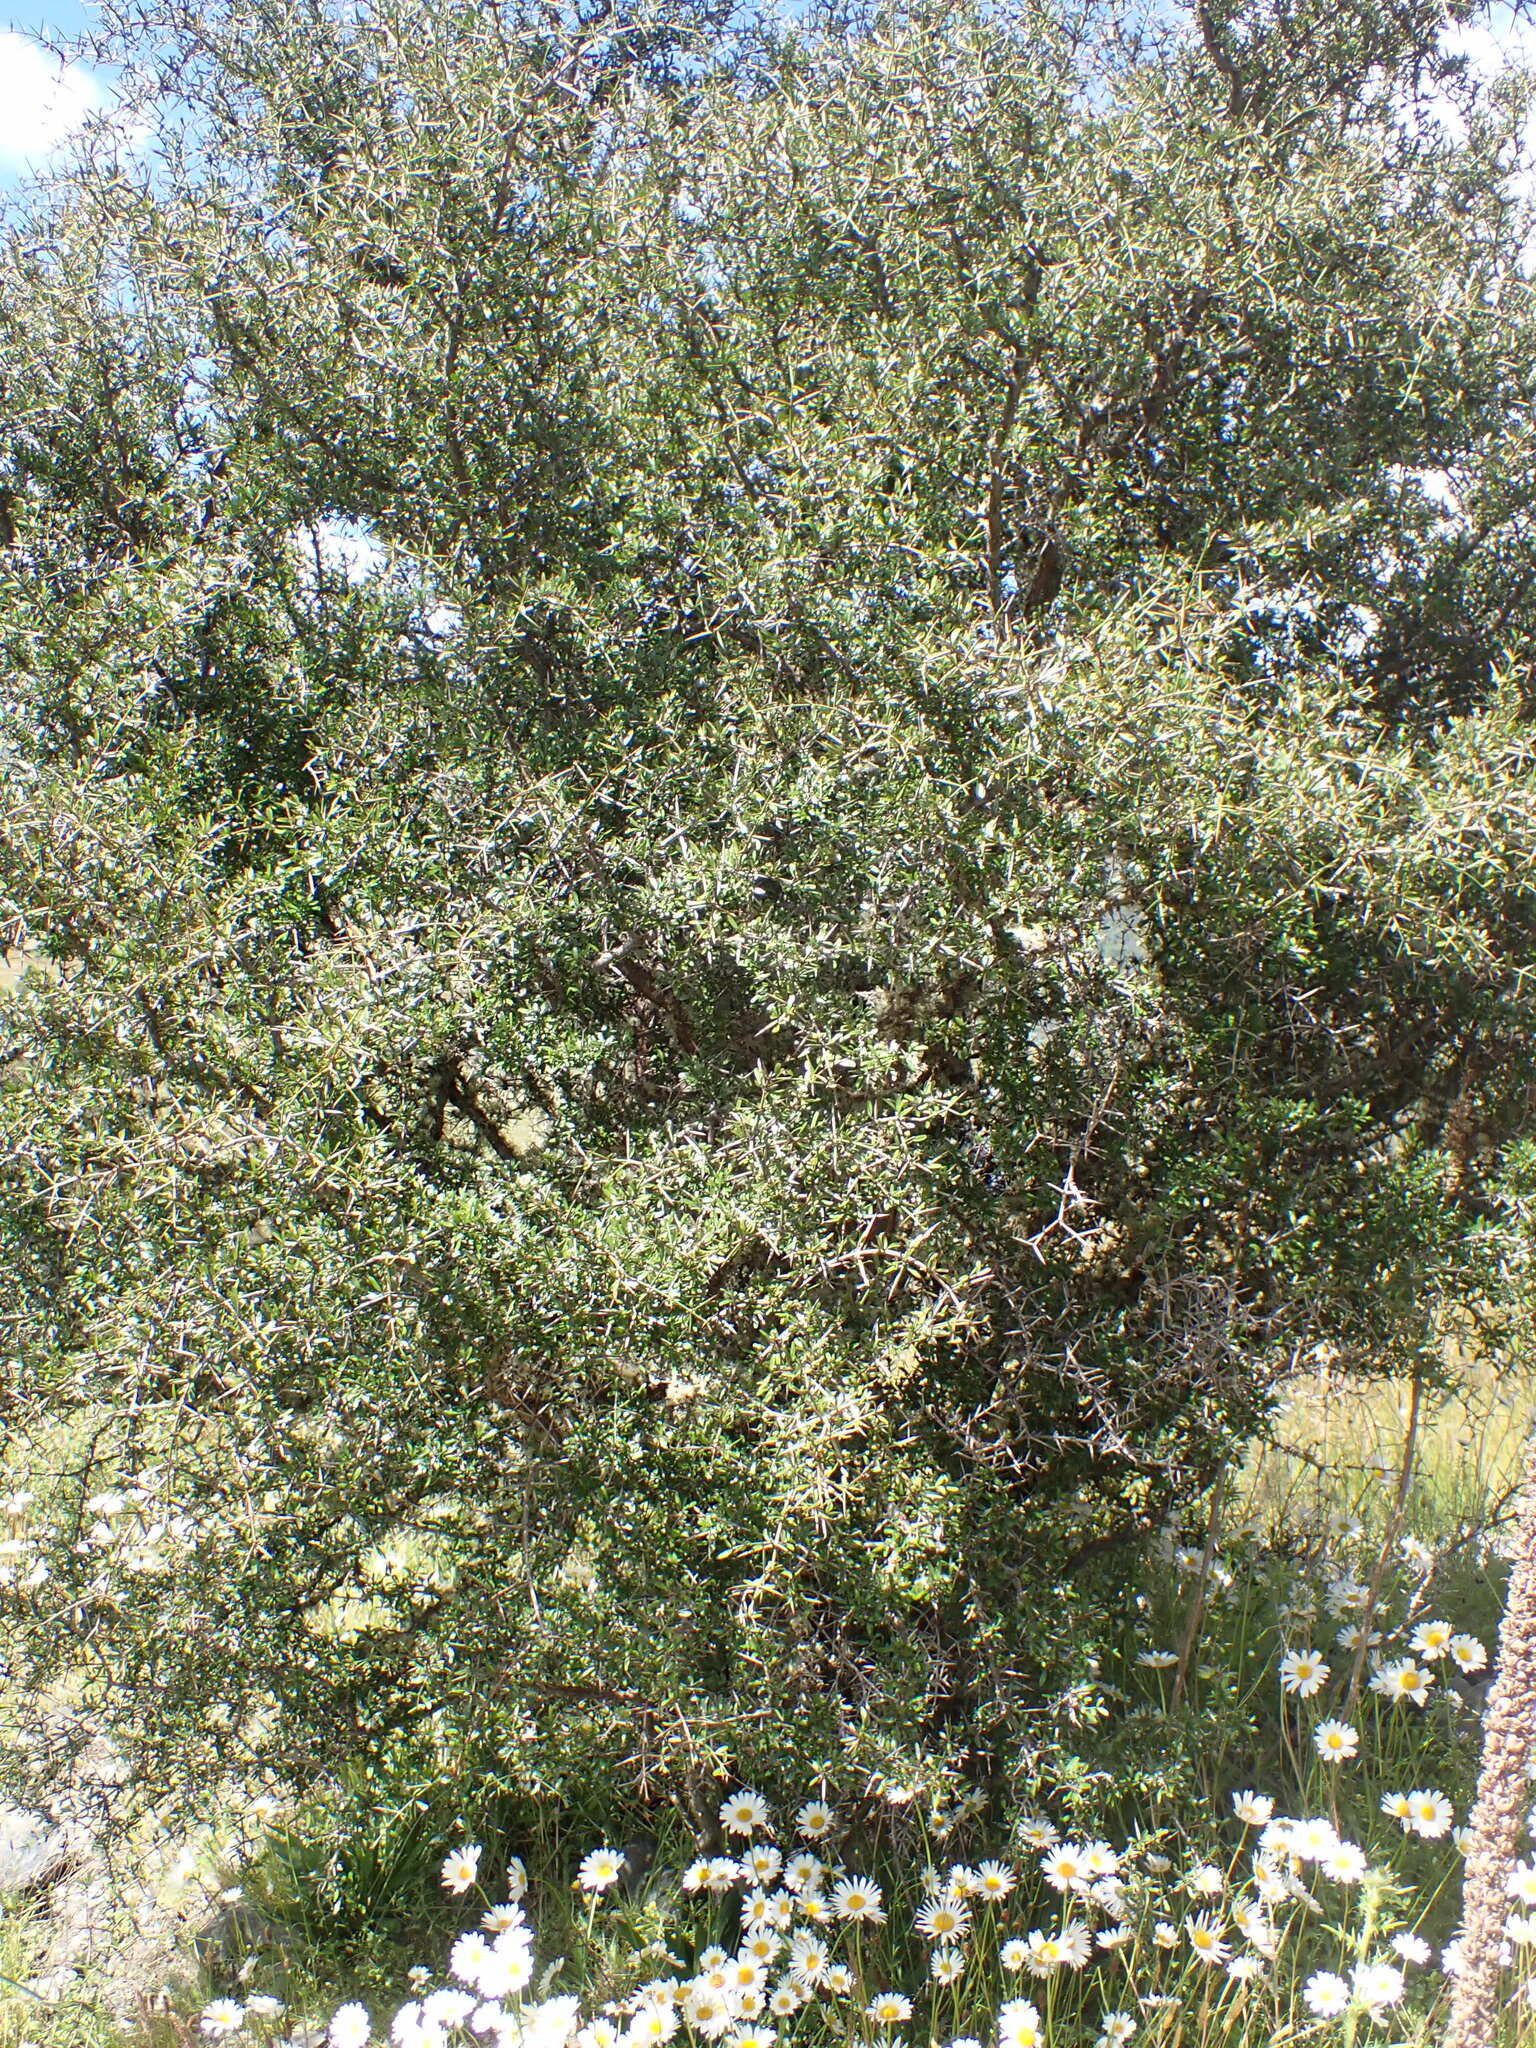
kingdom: Plantae
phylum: Tracheophyta
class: Magnoliopsida
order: Rosales
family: Rhamnaceae
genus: Discaria
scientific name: Discaria toumatou
